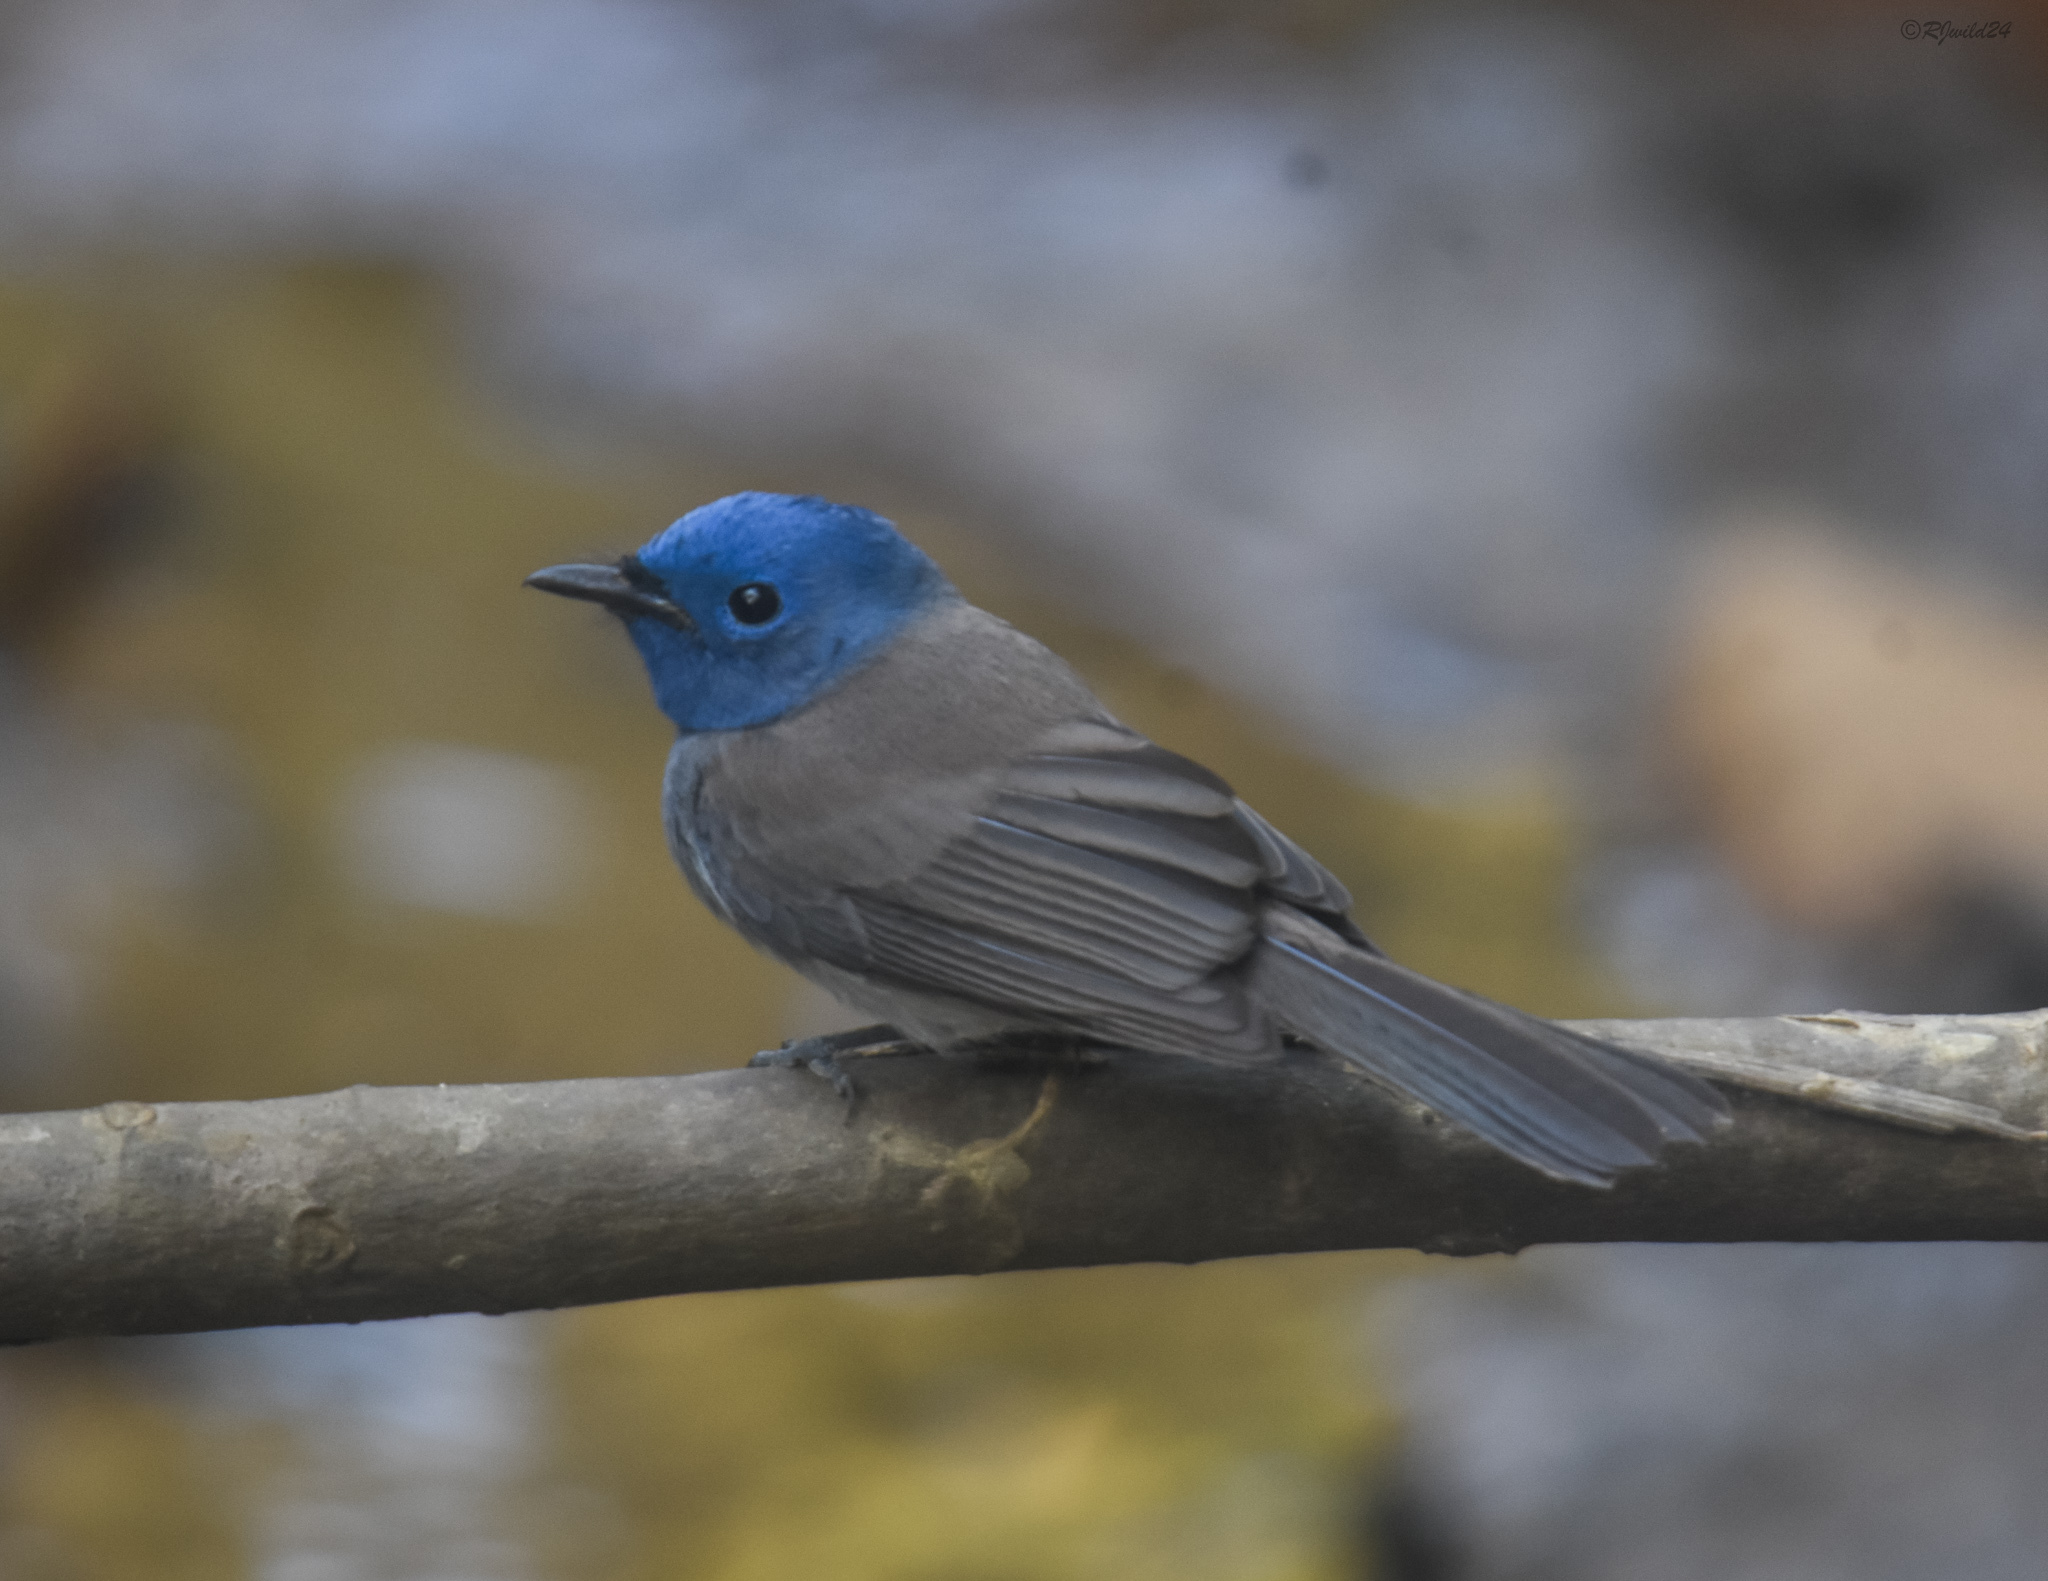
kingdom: Animalia
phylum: Chordata
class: Aves
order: Passeriformes
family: Monarchidae
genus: Hypothymis
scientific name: Hypothymis azurea
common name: Black-naped monarch
